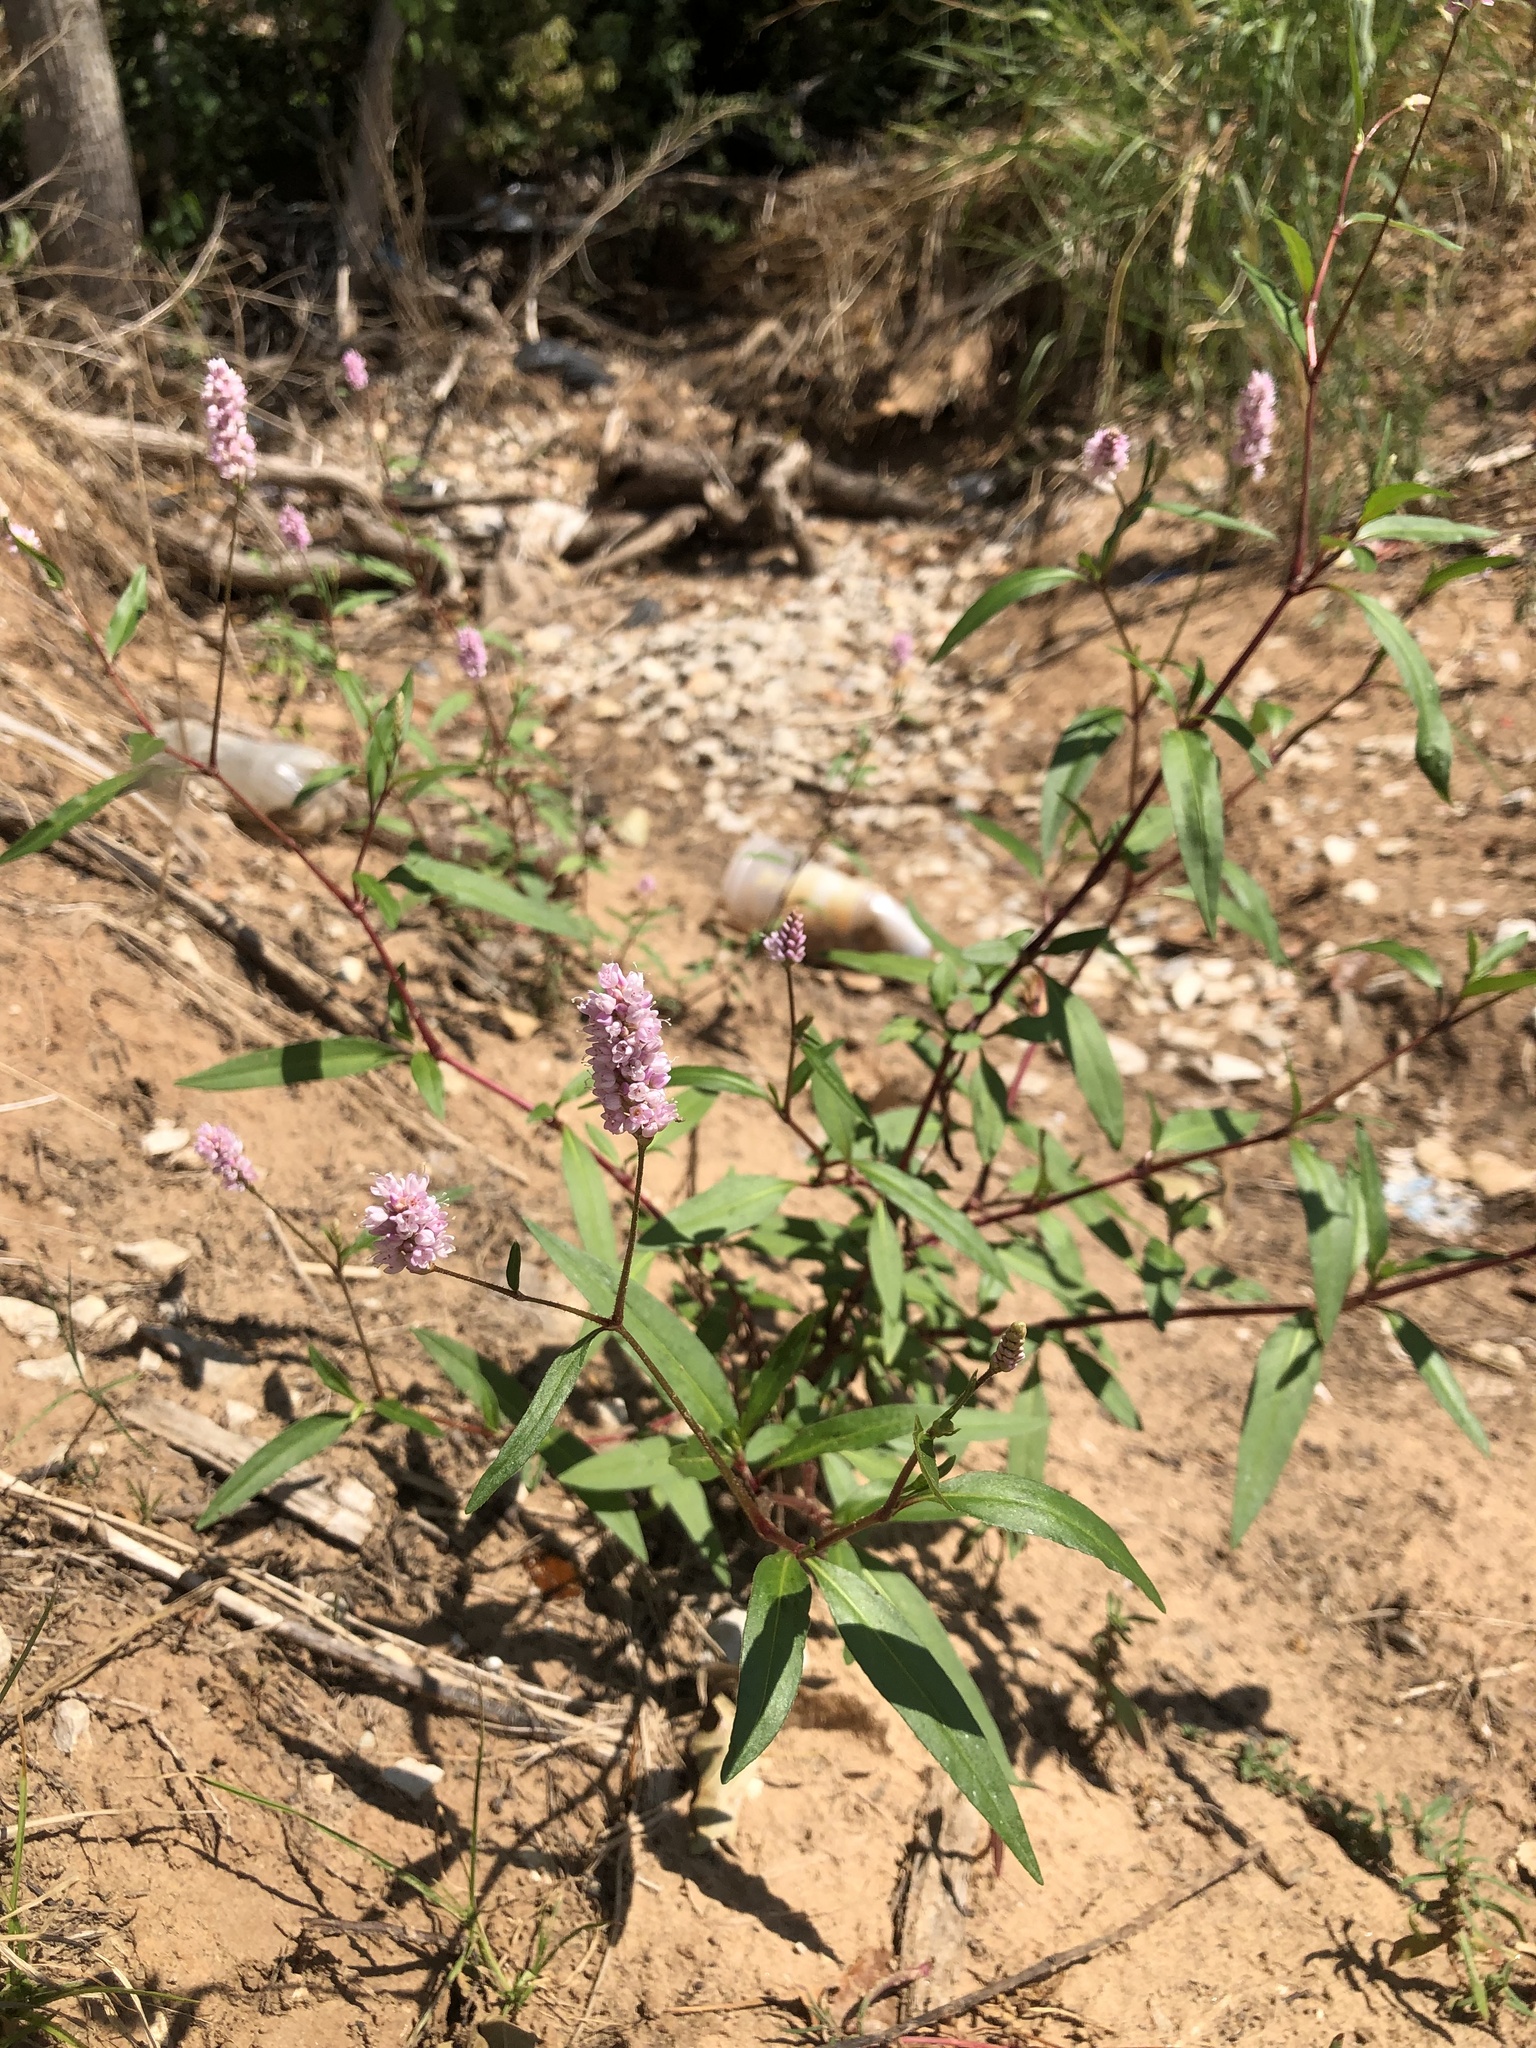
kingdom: Plantae
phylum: Tracheophyta
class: Magnoliopsida
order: Caryophyllales
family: Polygonaceae
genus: Persicaria
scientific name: Persicaria bicornis
